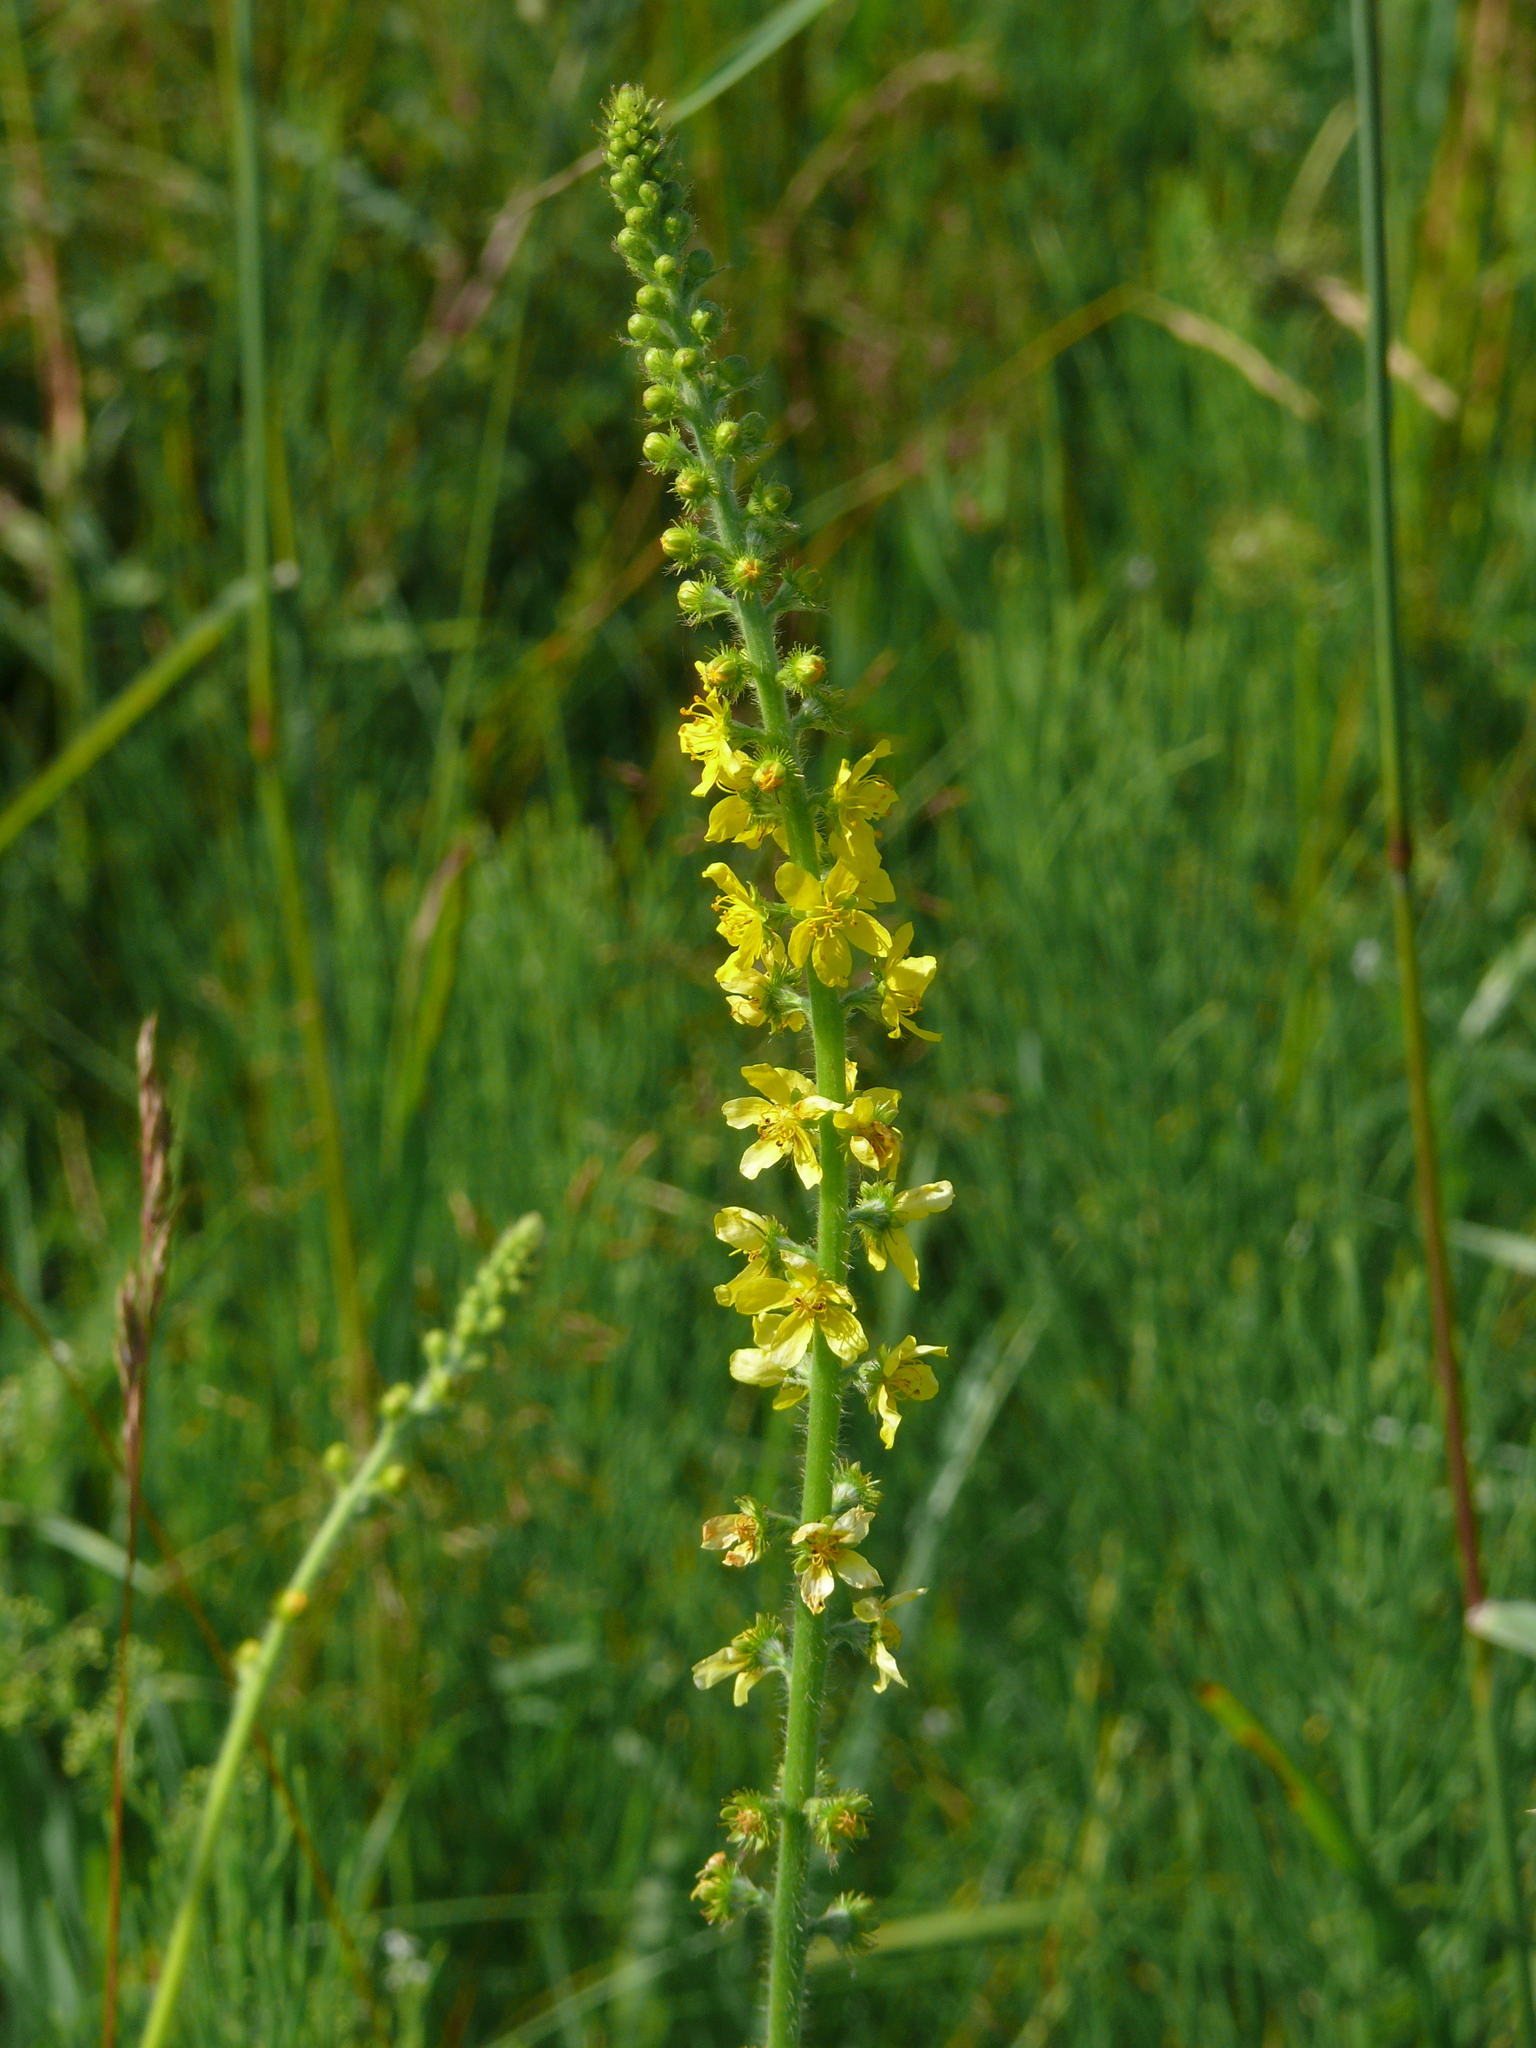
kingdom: Plantae
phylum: Tracheophyta
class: Magnoliopsida
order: Rosales
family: Rosaceae
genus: Agrimonia
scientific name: Agrimonia eupatoria
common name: Agrimony
